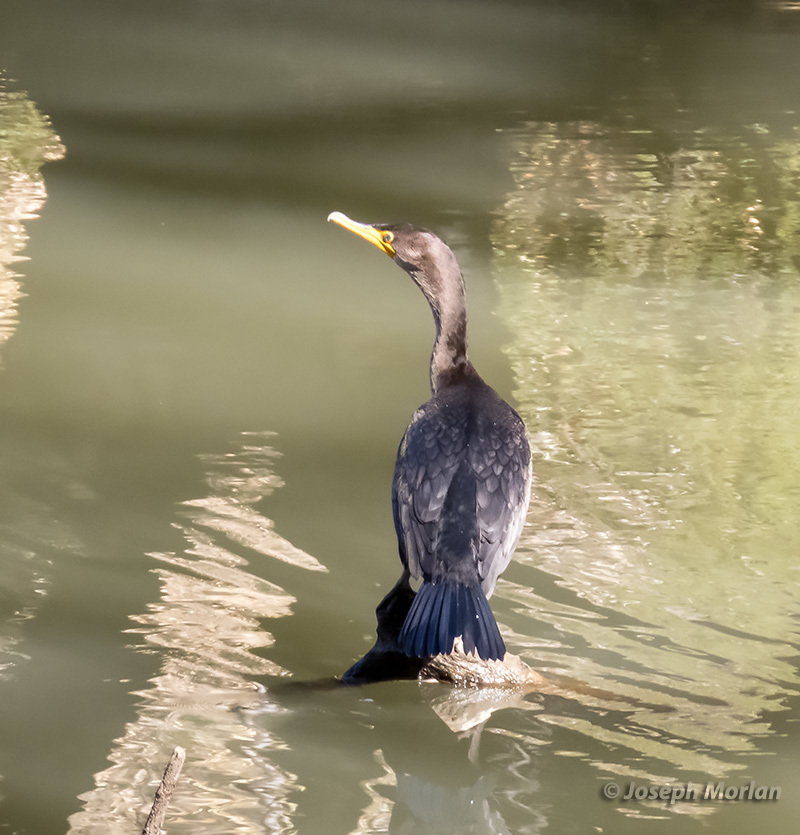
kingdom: Animalia
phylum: Chordata
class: Aves
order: Suliformes
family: Phalacrocoracidae
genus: Phalacrocorax
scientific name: Phalacrocorax auritus
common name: Double-crested cormorant
